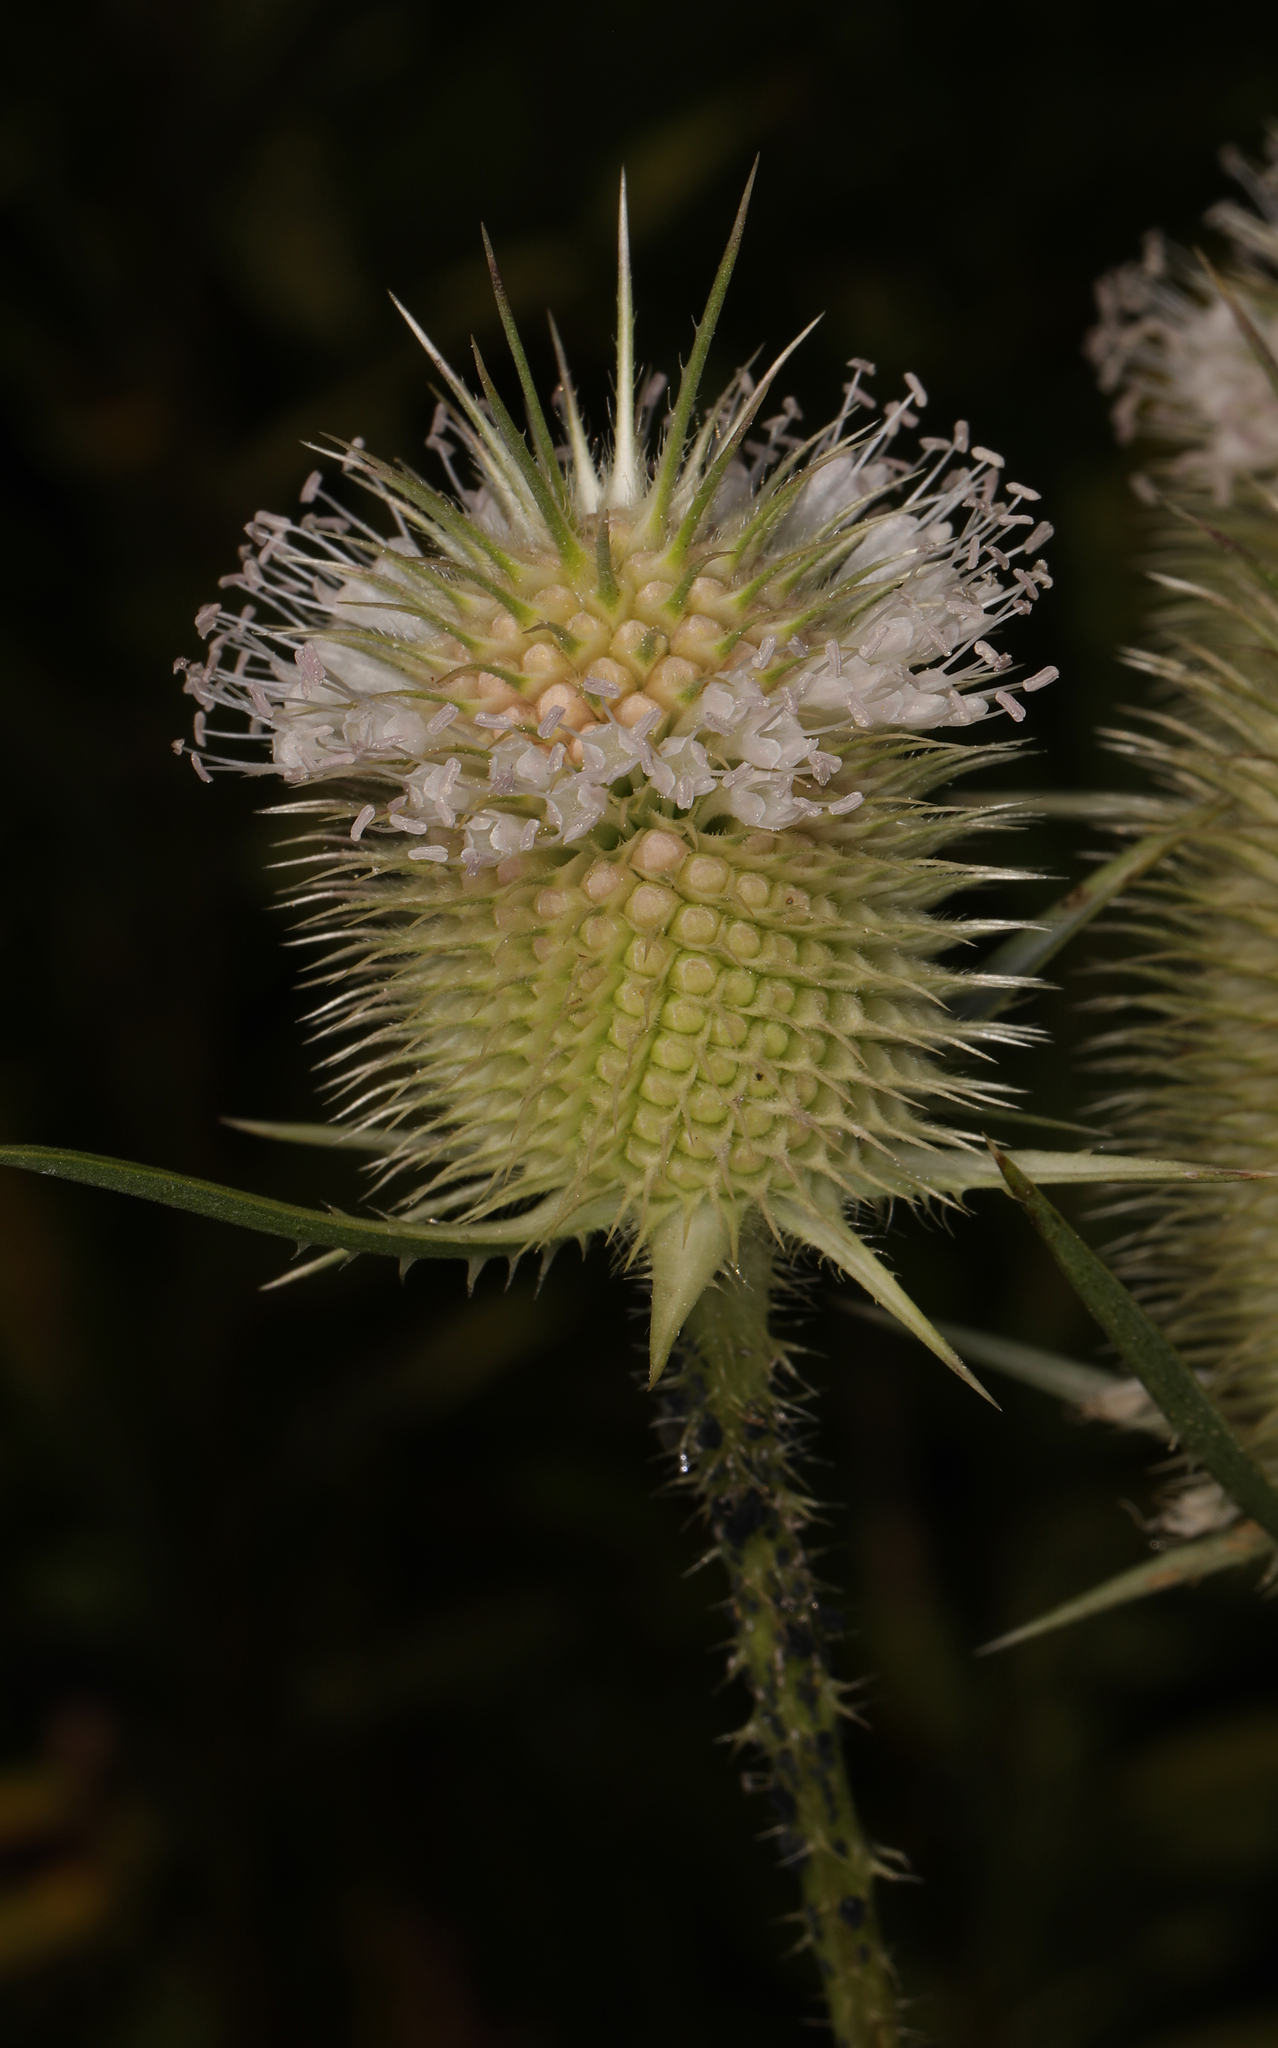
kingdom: Plantae
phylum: Tracheophyta
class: Magnoliopsida
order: Dipsacales
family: Caprifoliaceae
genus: Dipsacus
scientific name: Dipsacus laciniatus
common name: Cut-leaved teasel
